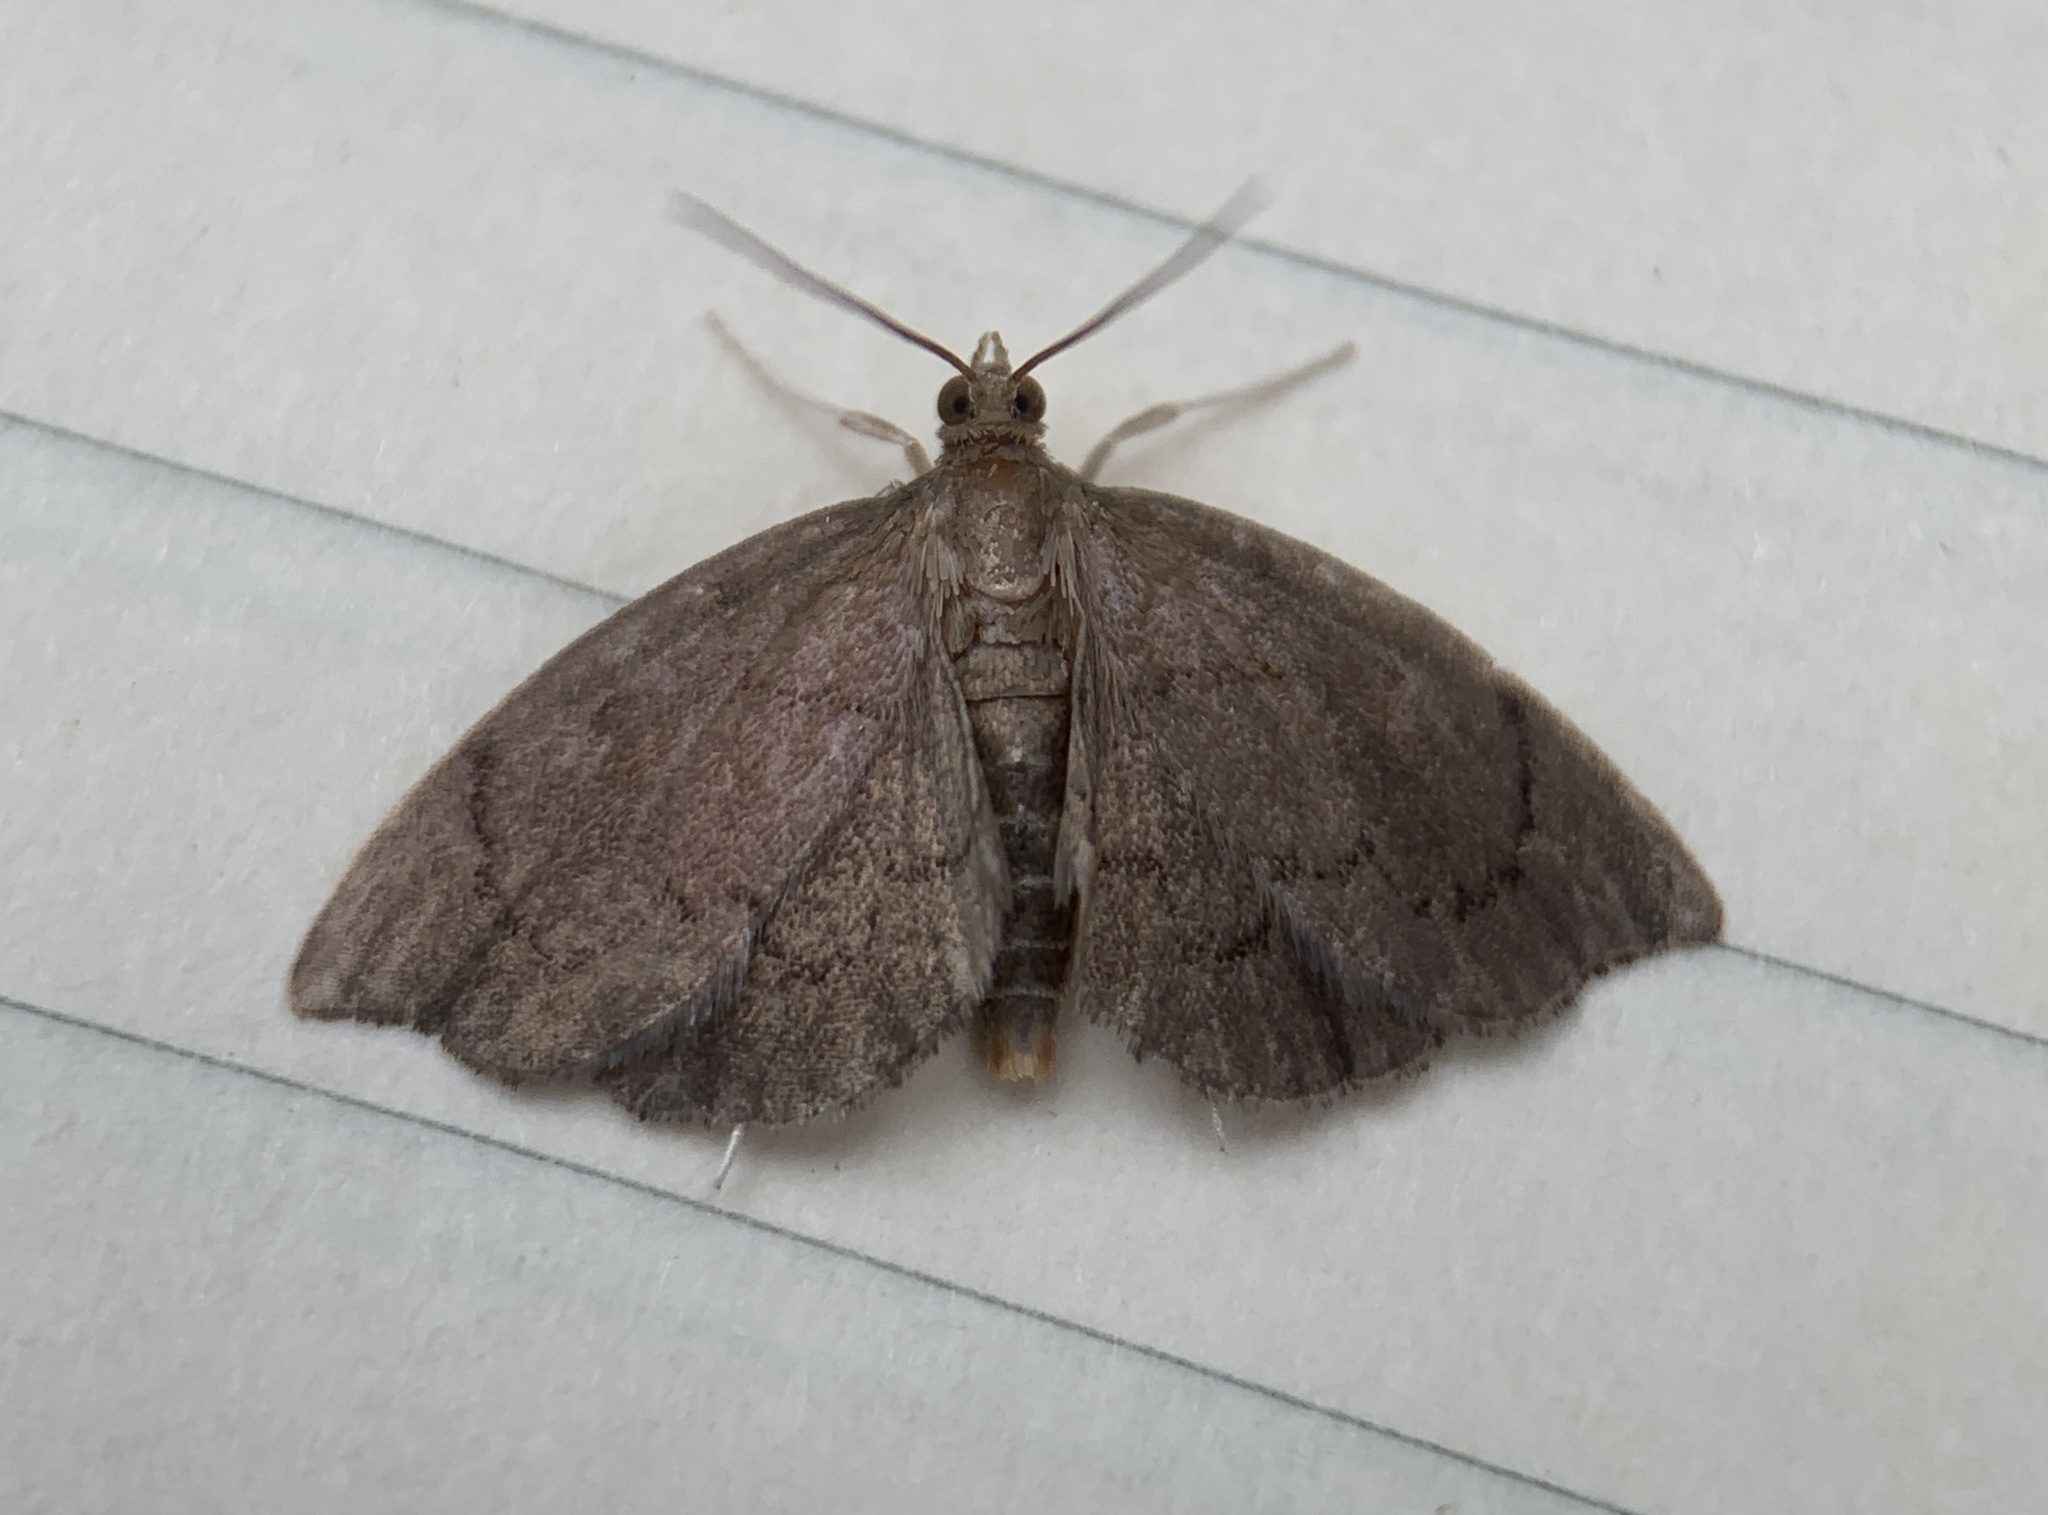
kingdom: Animalia
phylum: Arthropoda
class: Insecta
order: Lepidoptera
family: Crambidae
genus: Perispasta
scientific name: Perispasta caeculalis
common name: Titian peale's moth
